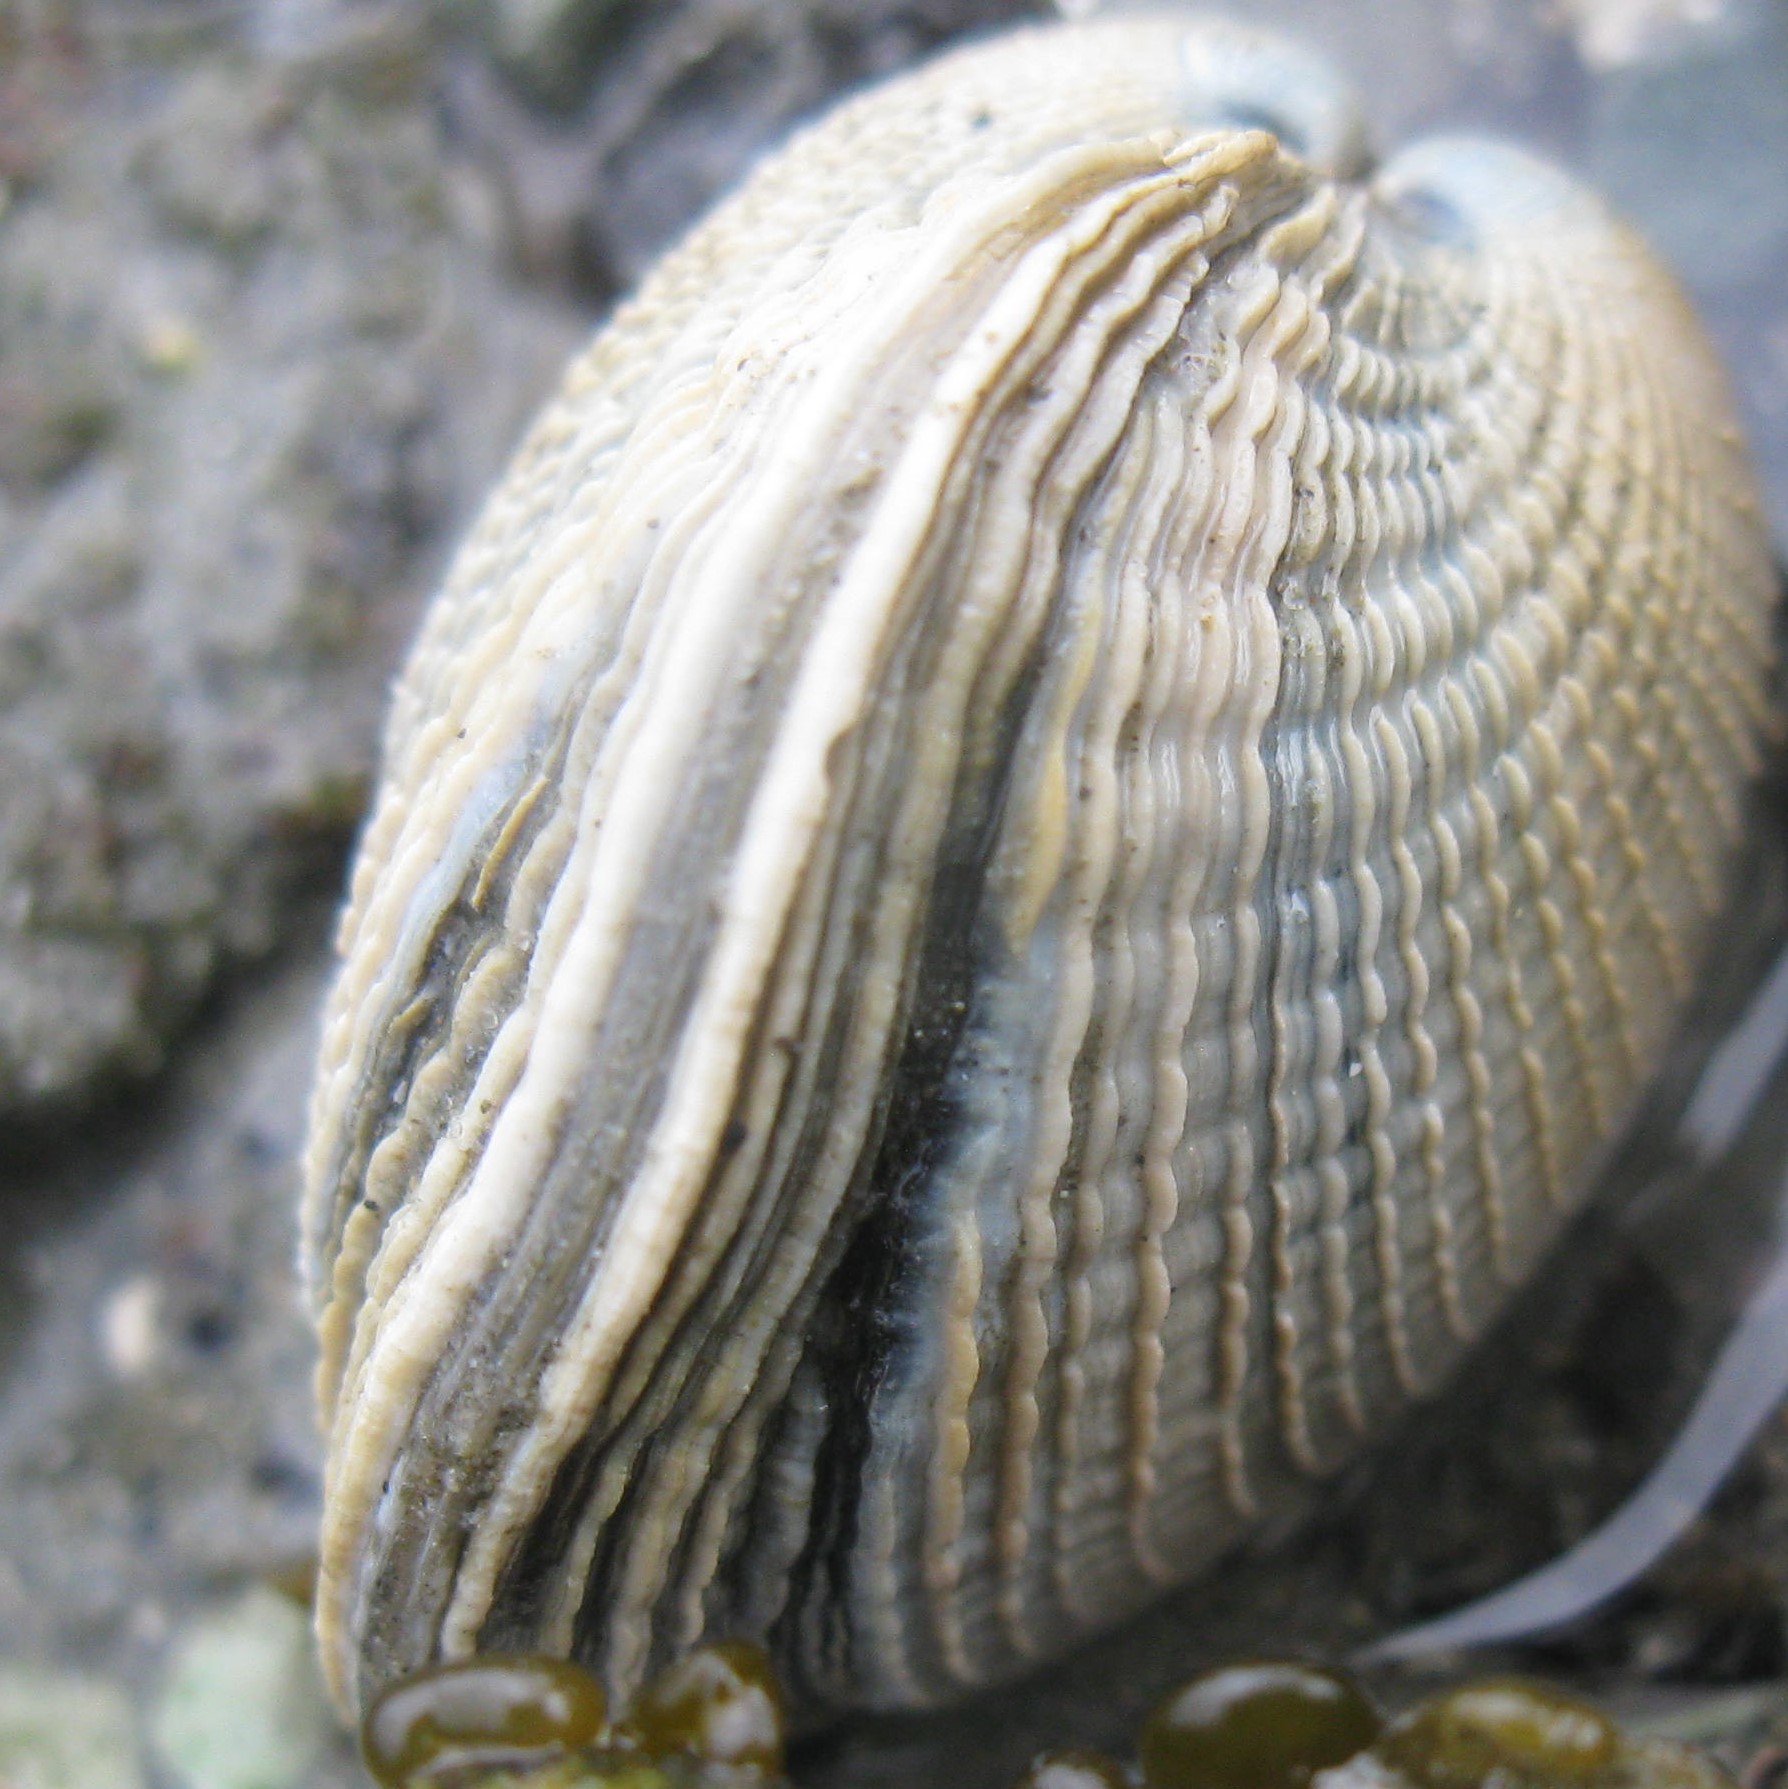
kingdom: Animalia
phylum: Mollusca
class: Bivalvia
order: Venerida
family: Veneridae
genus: Austrovenus
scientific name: Austrovenus stutchburyi
